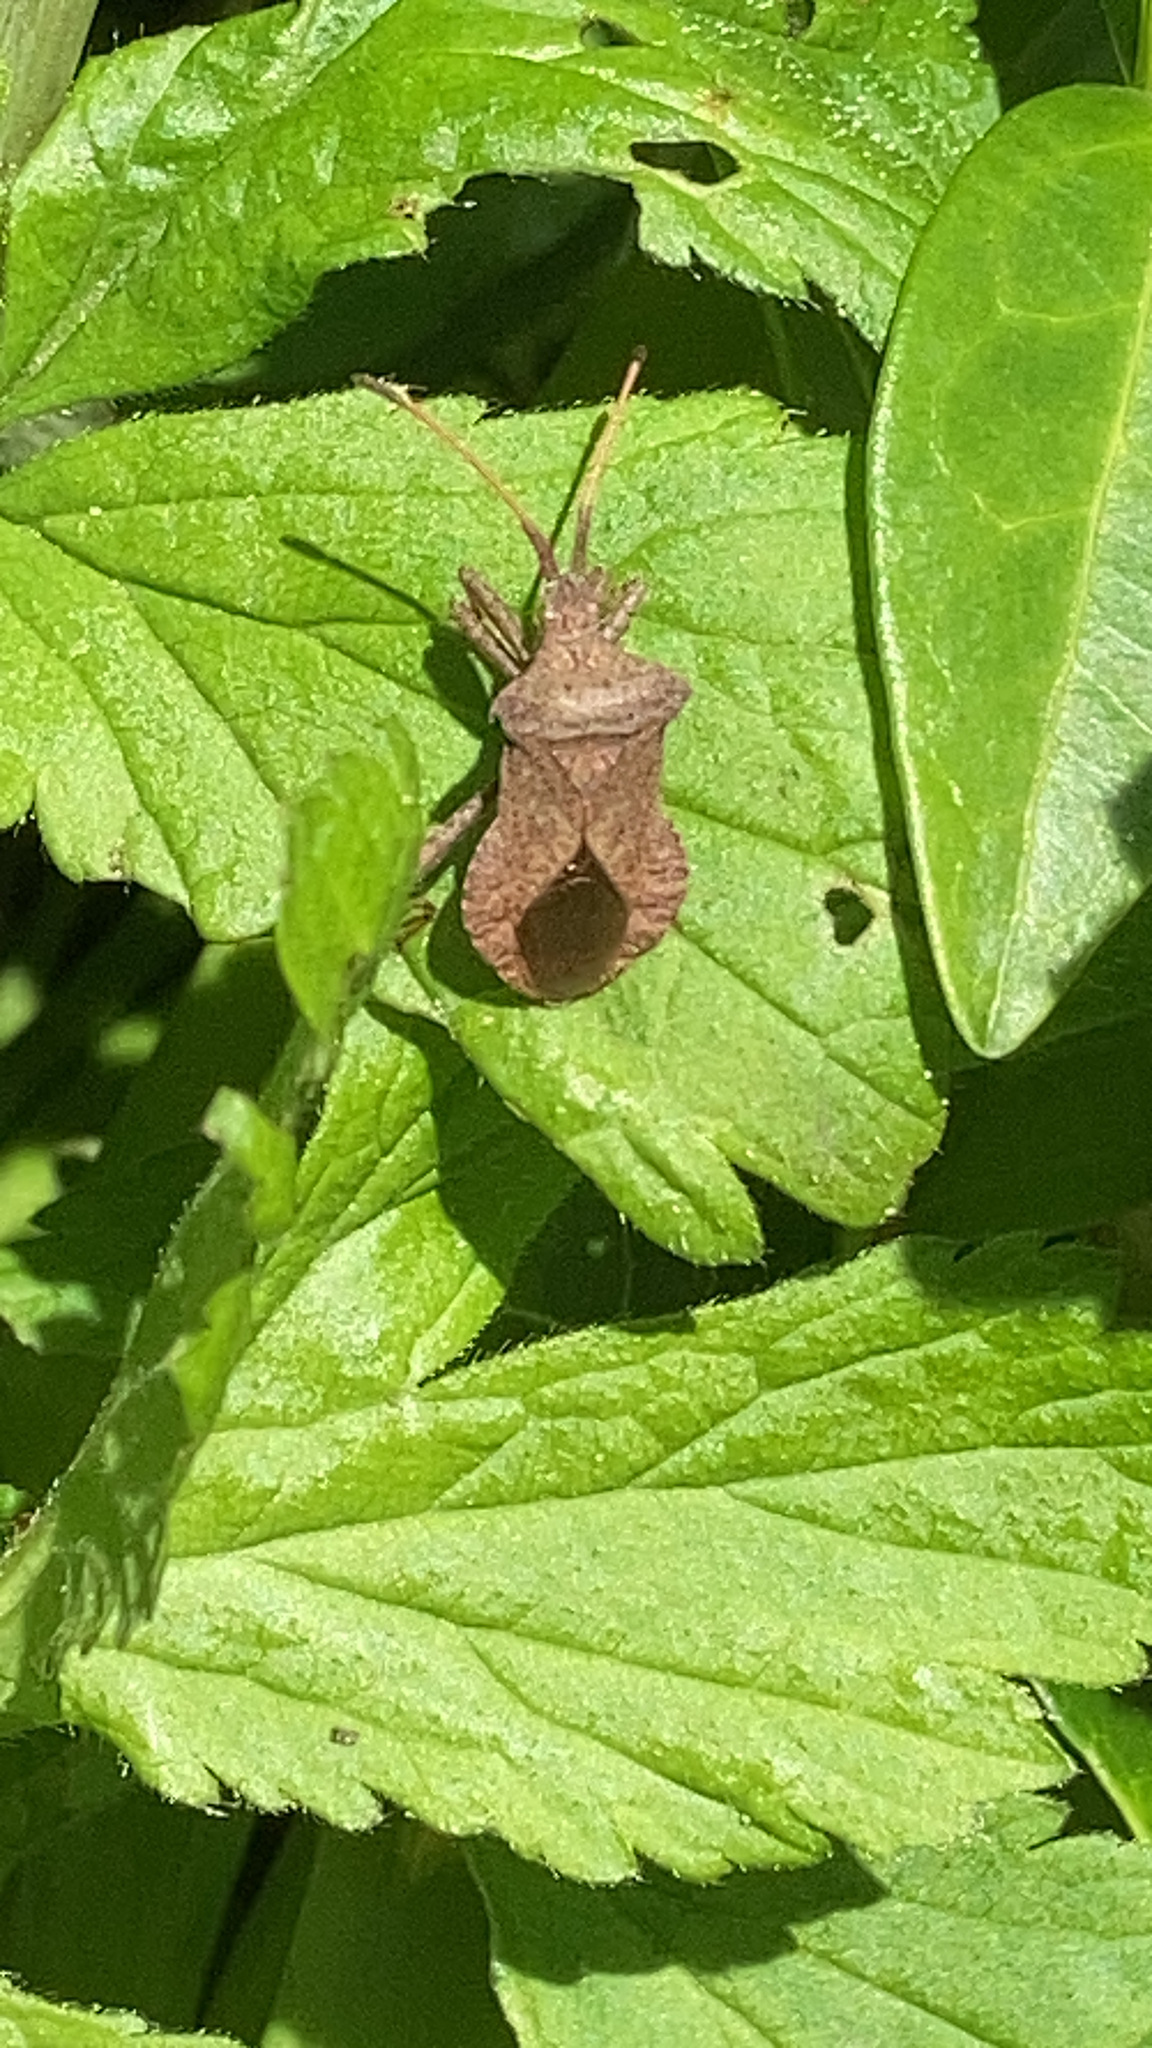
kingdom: Animalia
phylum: Arthropoda
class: Insecta
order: Hemiptera
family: Coreidae
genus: Coreus
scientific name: Coreus marginatus
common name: Dock bug
